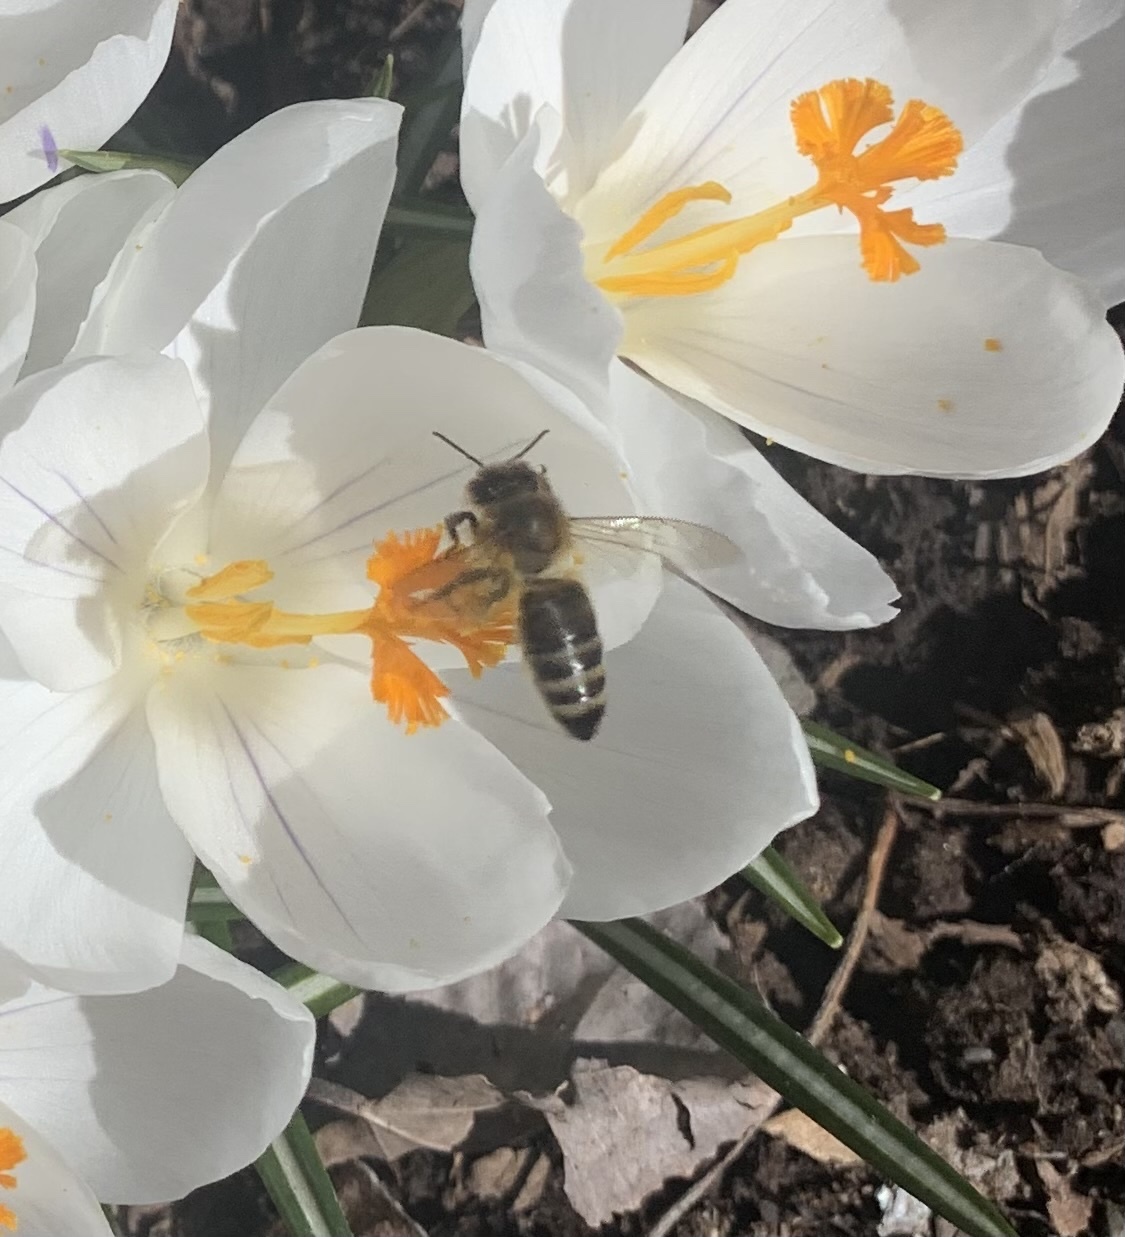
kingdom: Animalia
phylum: Arthropoda
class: Insecta
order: Hymenoptera
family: Apidae
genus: Apis
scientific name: Apis mellifera
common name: Honey bee
